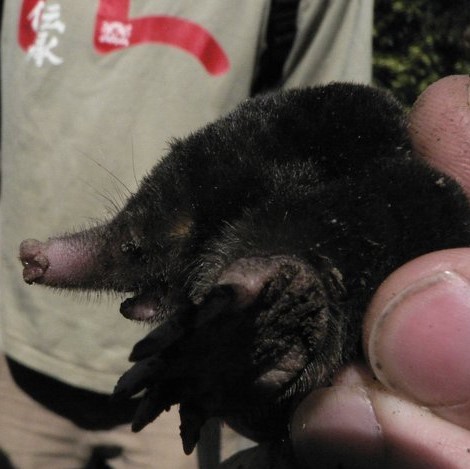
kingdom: Animalia
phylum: Chordata
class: Mammalia
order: Soricomorpha
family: Talpidae
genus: Talpa
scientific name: Talpa europaea
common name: European mole
